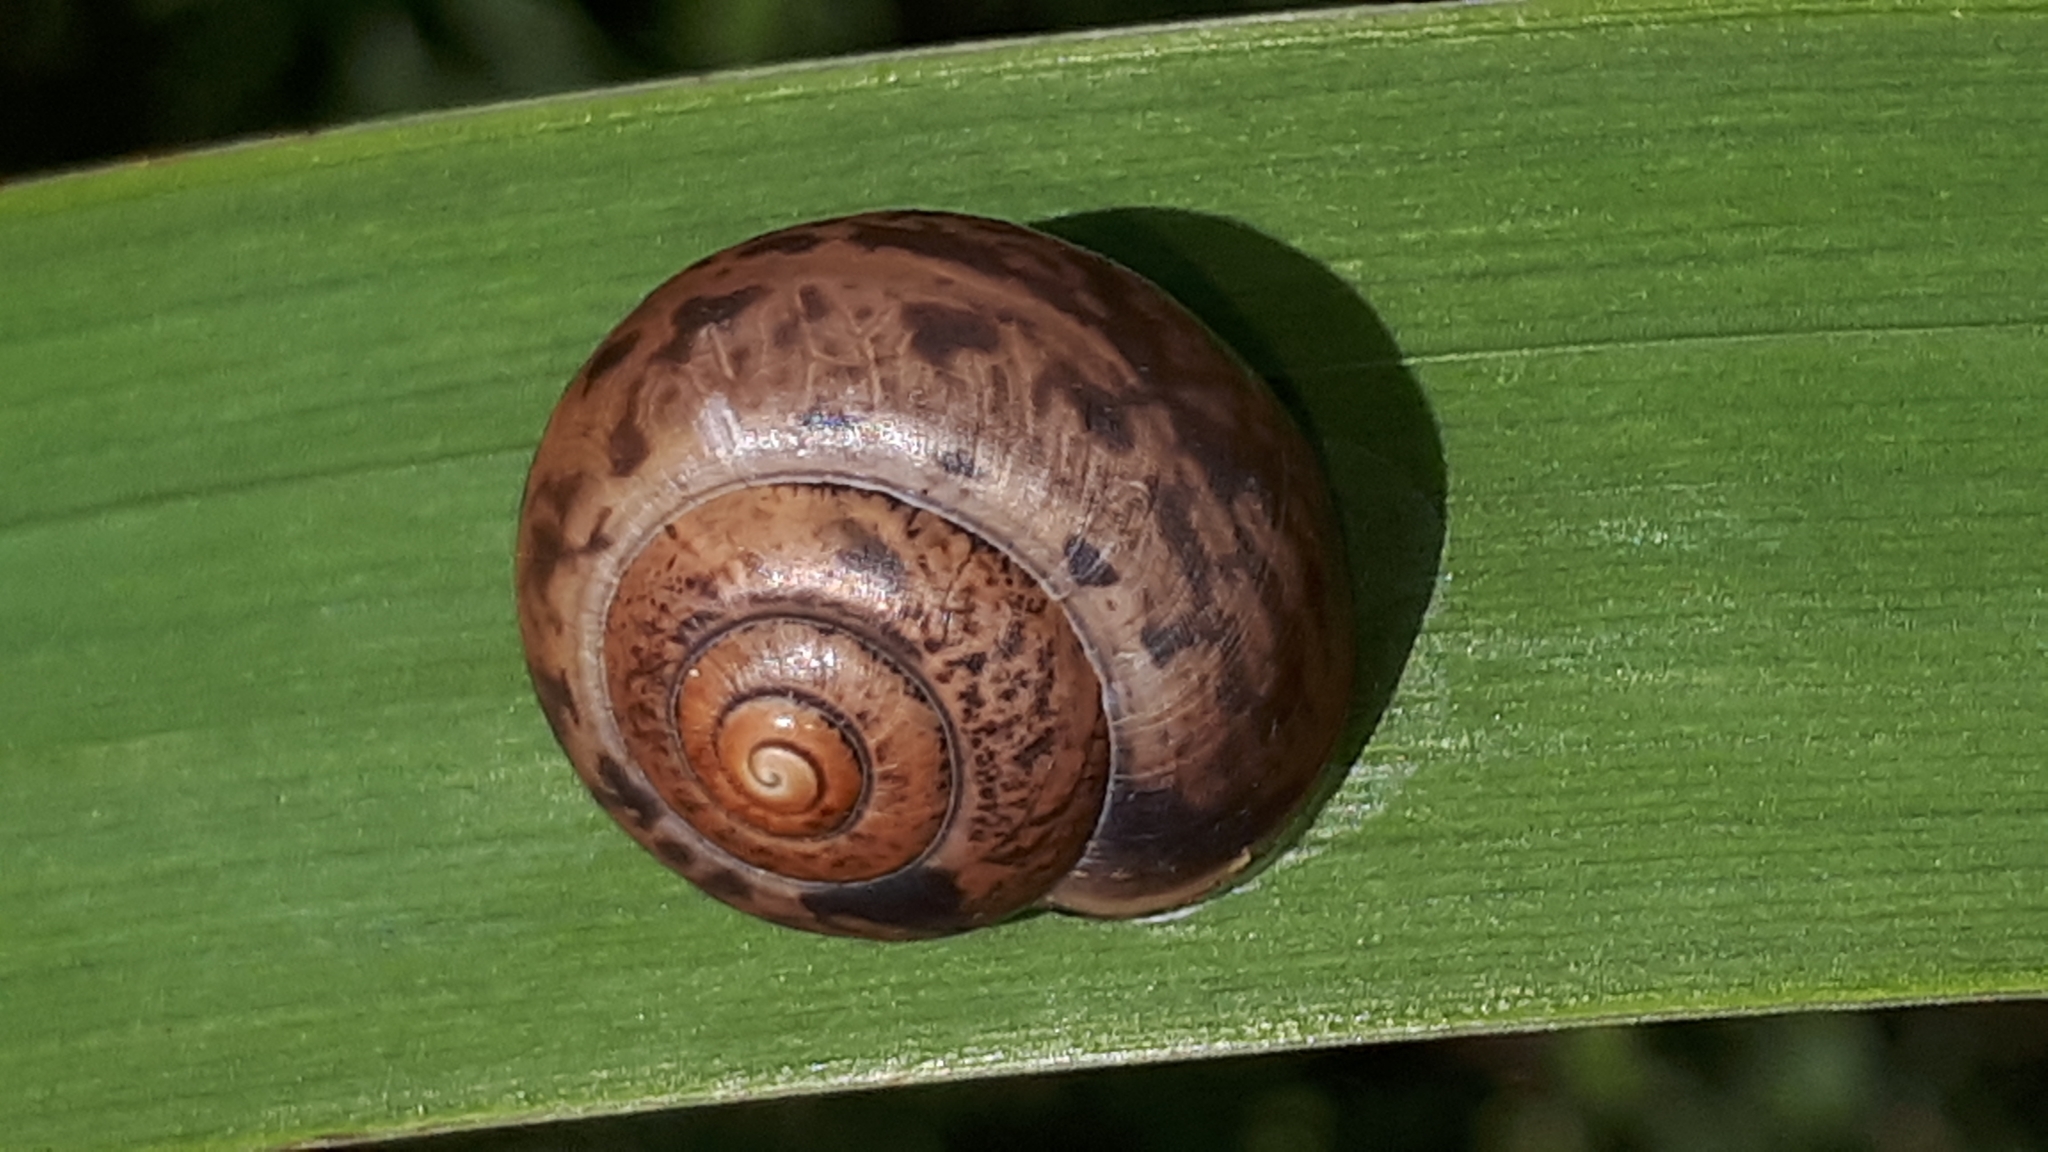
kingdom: Animalia
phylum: Mollusca
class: Gastropoda
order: Stylommatophora
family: Helicidae
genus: Arianta
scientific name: Arianta arbustorum
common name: Copse snail
